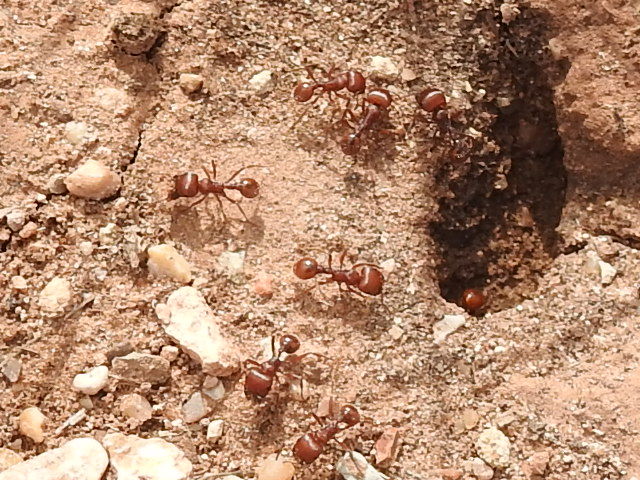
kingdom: Animalia
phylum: Arthropoda
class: Insecta
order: Hymenoptera
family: Formicidae
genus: Pogonomyrmex
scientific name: Pogonomyrmex barbatus
